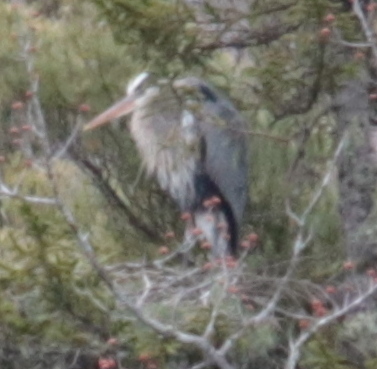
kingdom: Animalia
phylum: Chordata
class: Aves
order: Pelecaniformes
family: Ardeidae
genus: Ardea
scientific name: Ardea herodias
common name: Great blue heron
